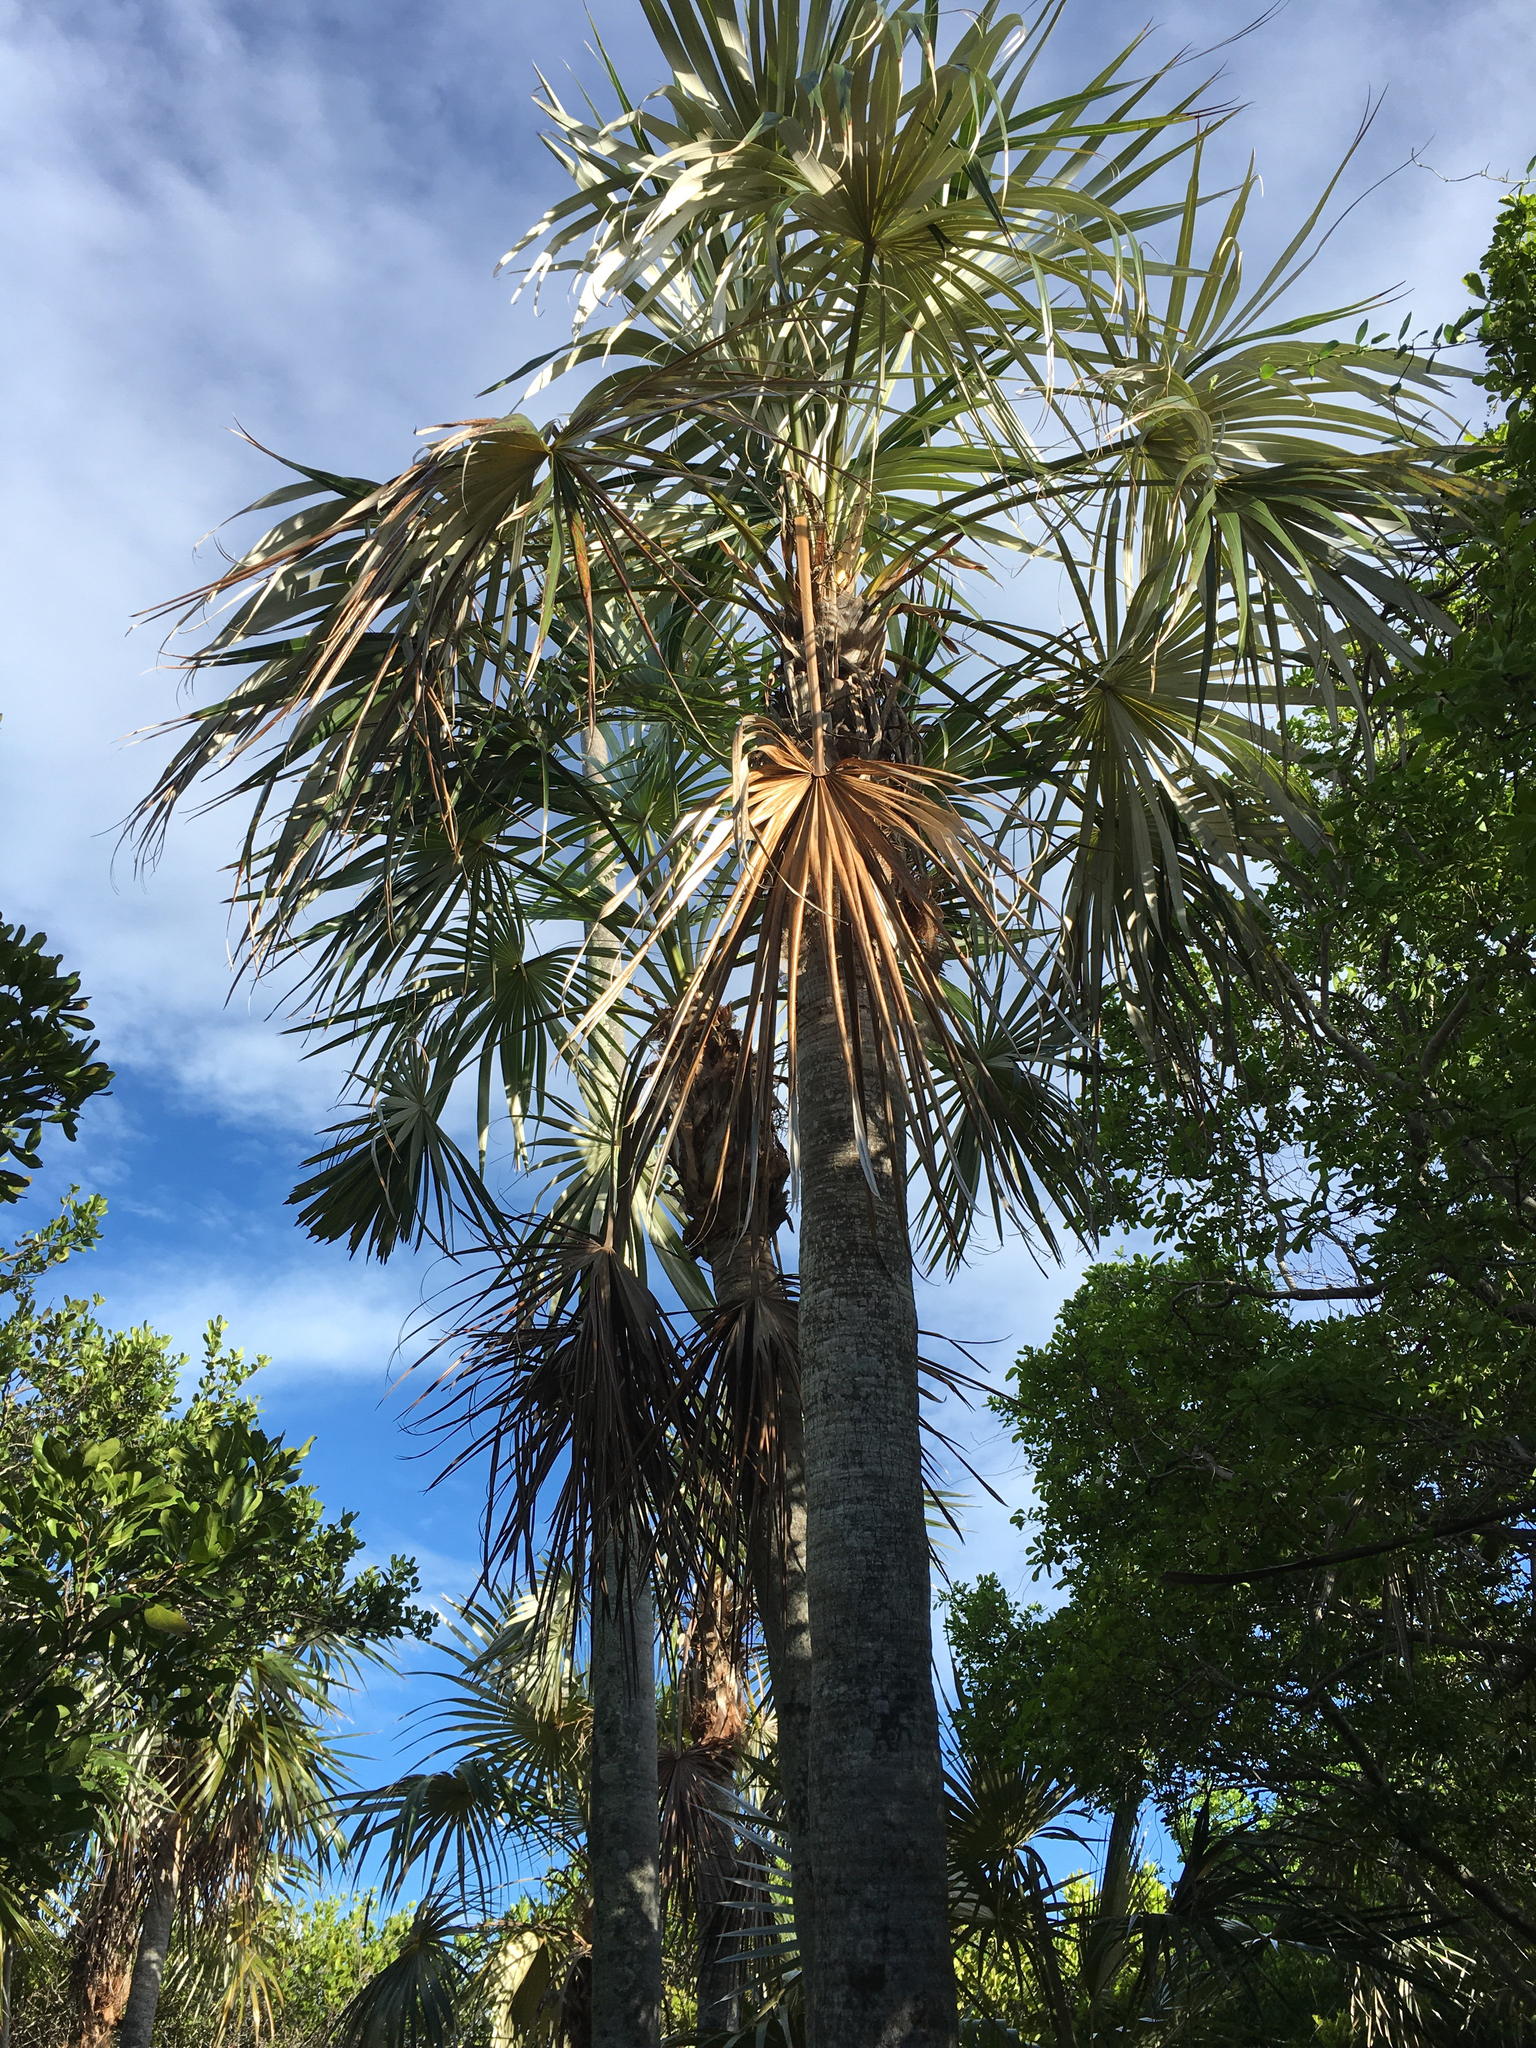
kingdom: Plantae
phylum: Tracheophyta
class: Liliopsida
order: Arecales
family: Arecaceae
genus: Coccothrinax
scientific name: Coccothrinax argentata
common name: Florida silver palm
